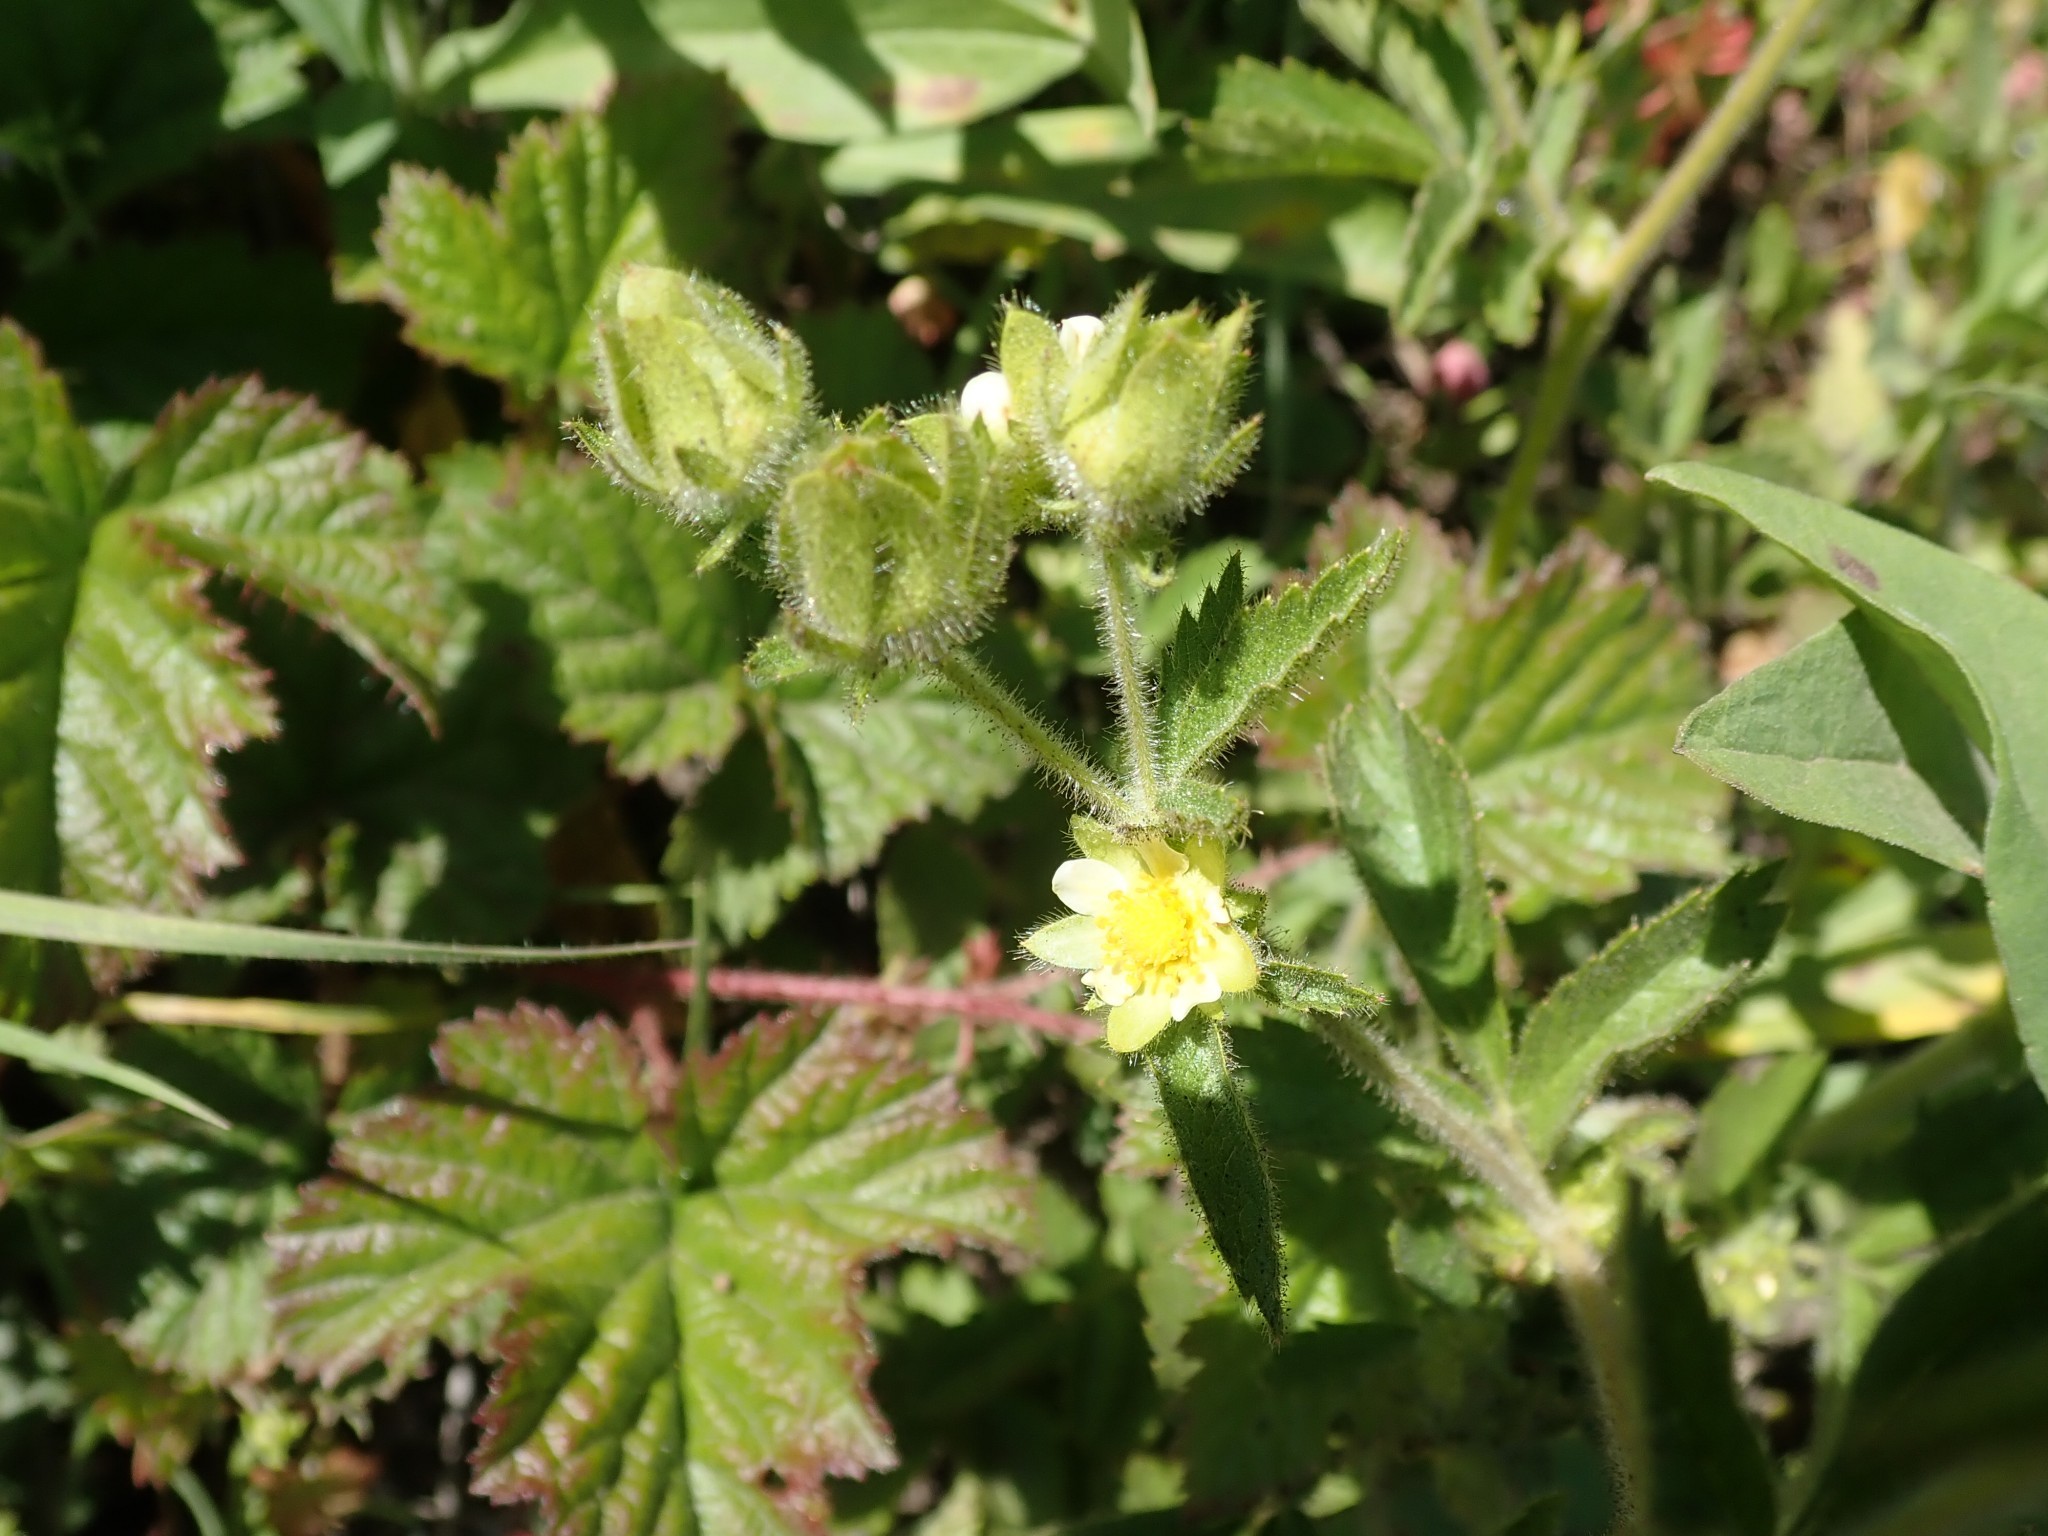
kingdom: Plantae
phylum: Tracheophyta
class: Magnoliopsida
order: Rosales
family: Rosaceae
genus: Drymocallis
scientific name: Drymocallis glandulosa
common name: Sticky cinquefoil
